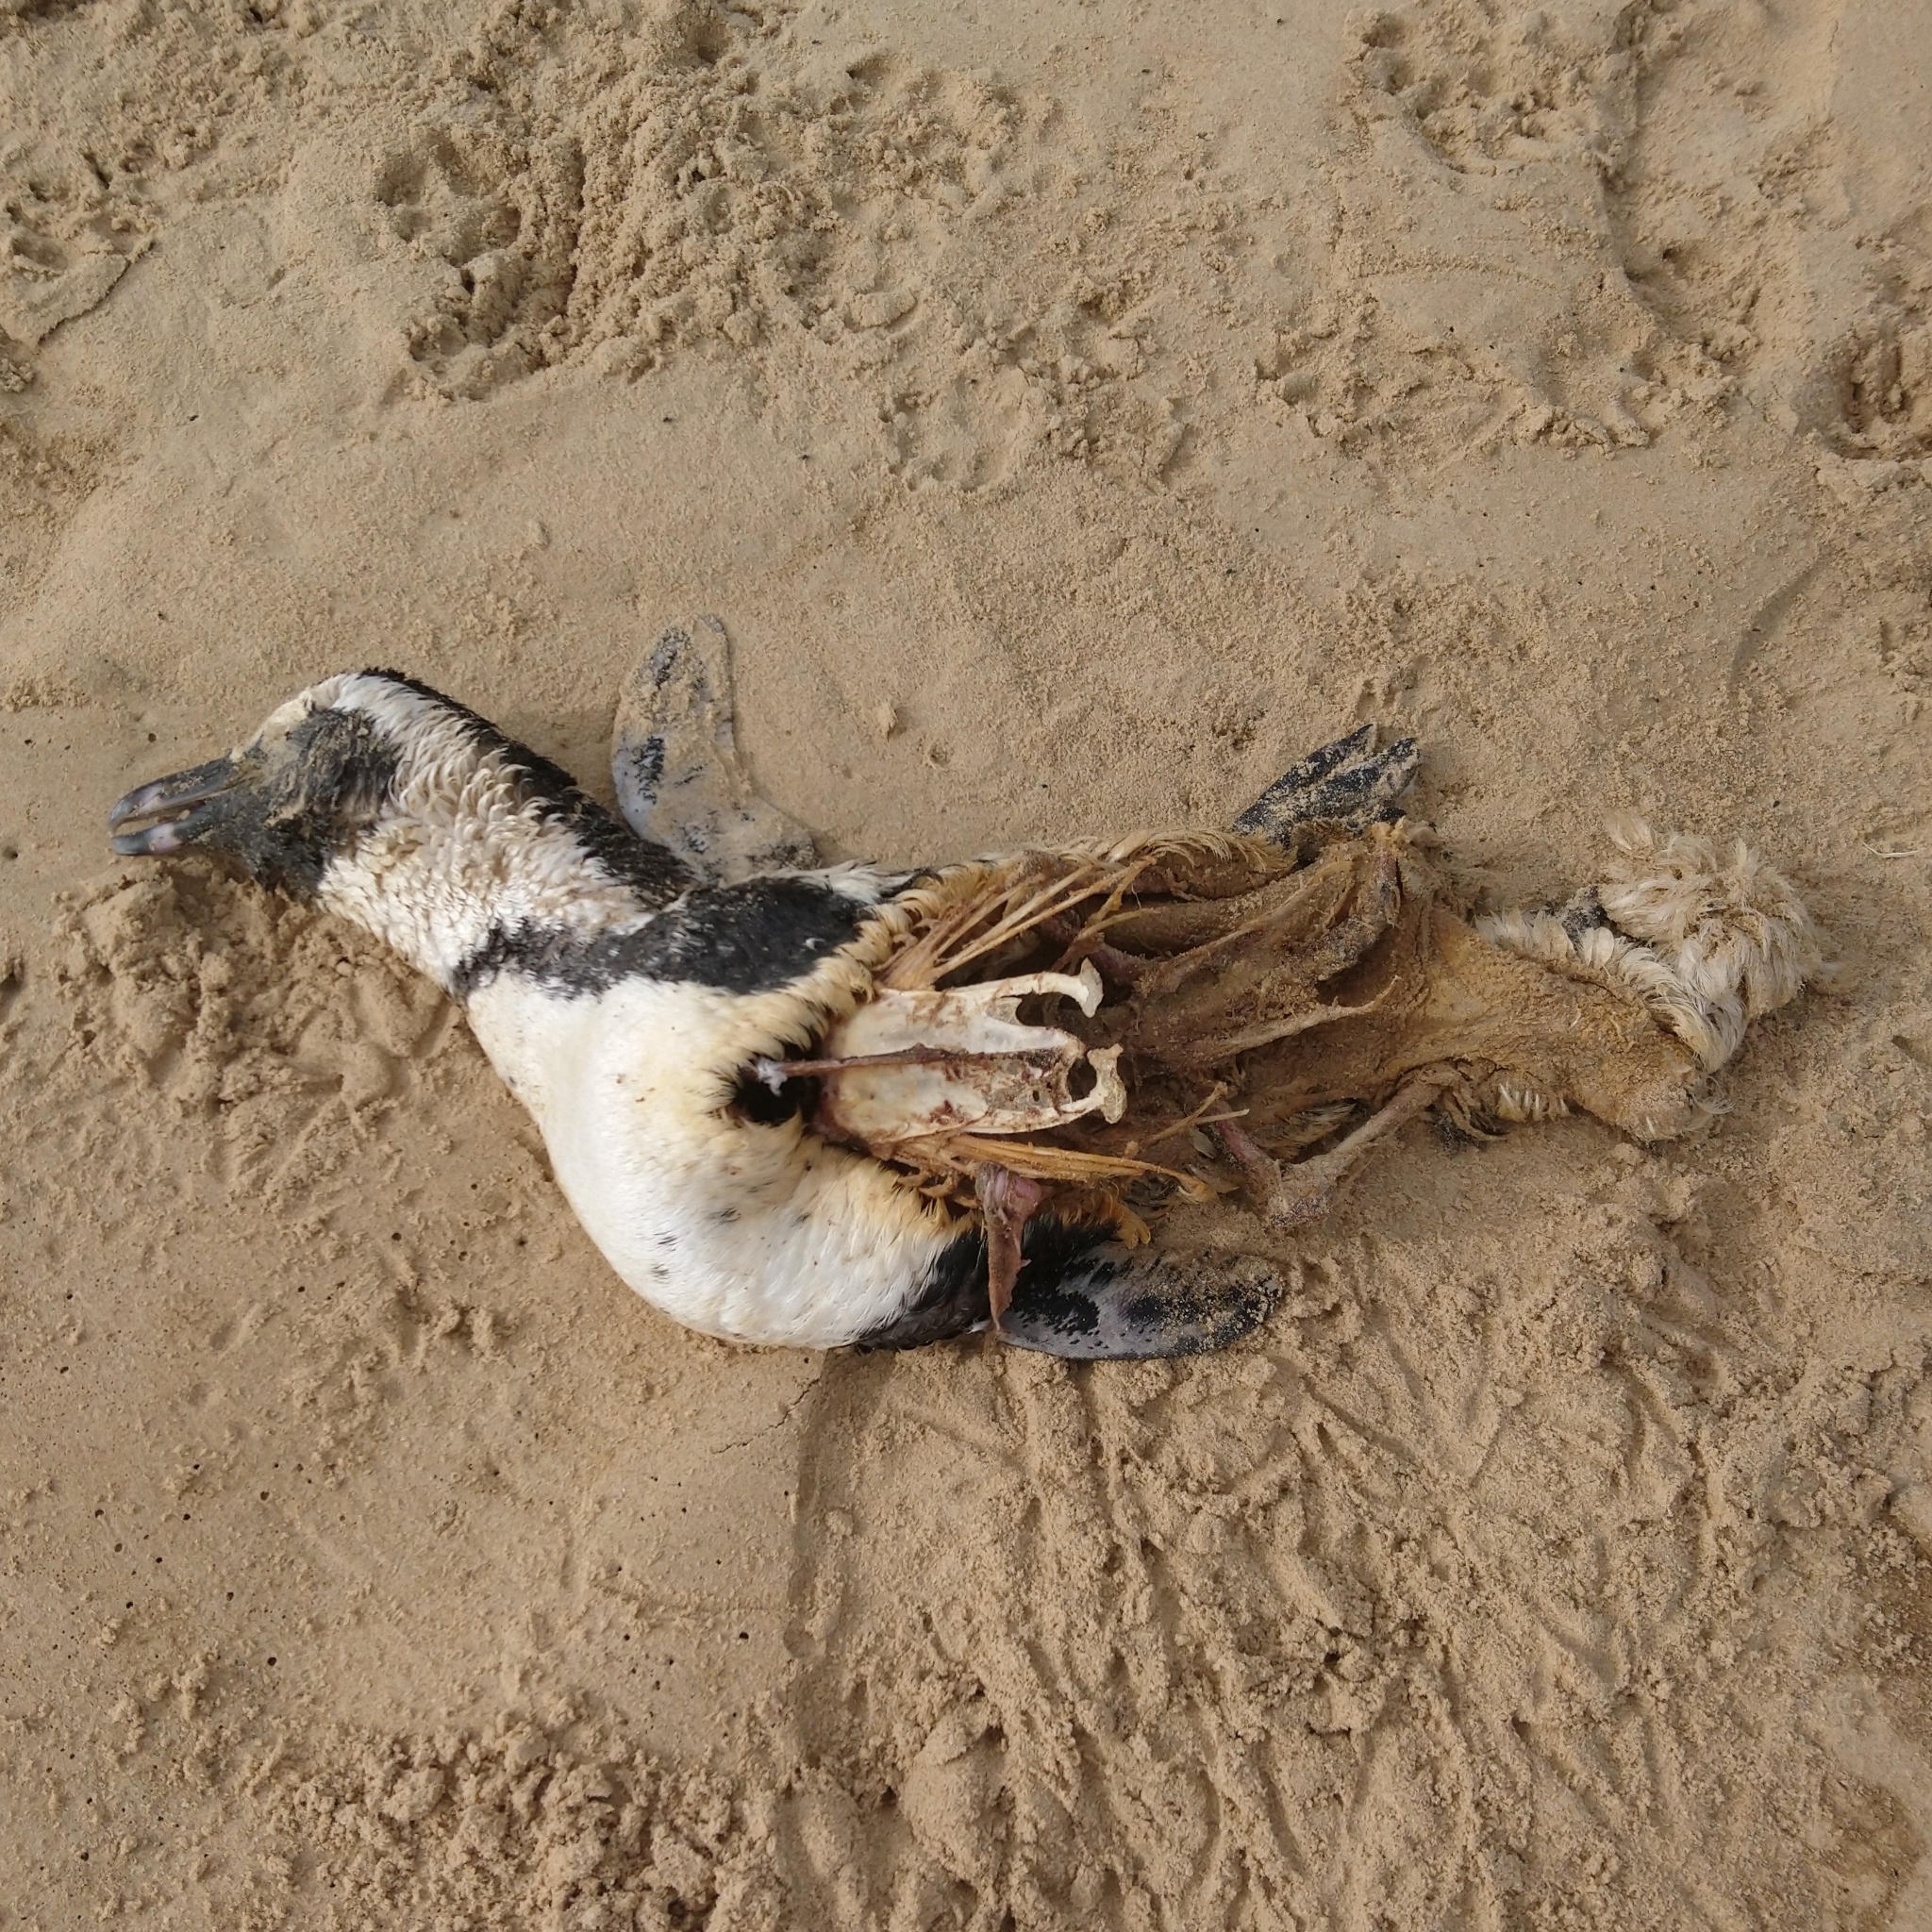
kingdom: Animalia
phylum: Chordata
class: Aves
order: Sphenisciformes
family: Spheniscidae
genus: Spheniscus
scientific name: Spheniscus demersus
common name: African penguin
